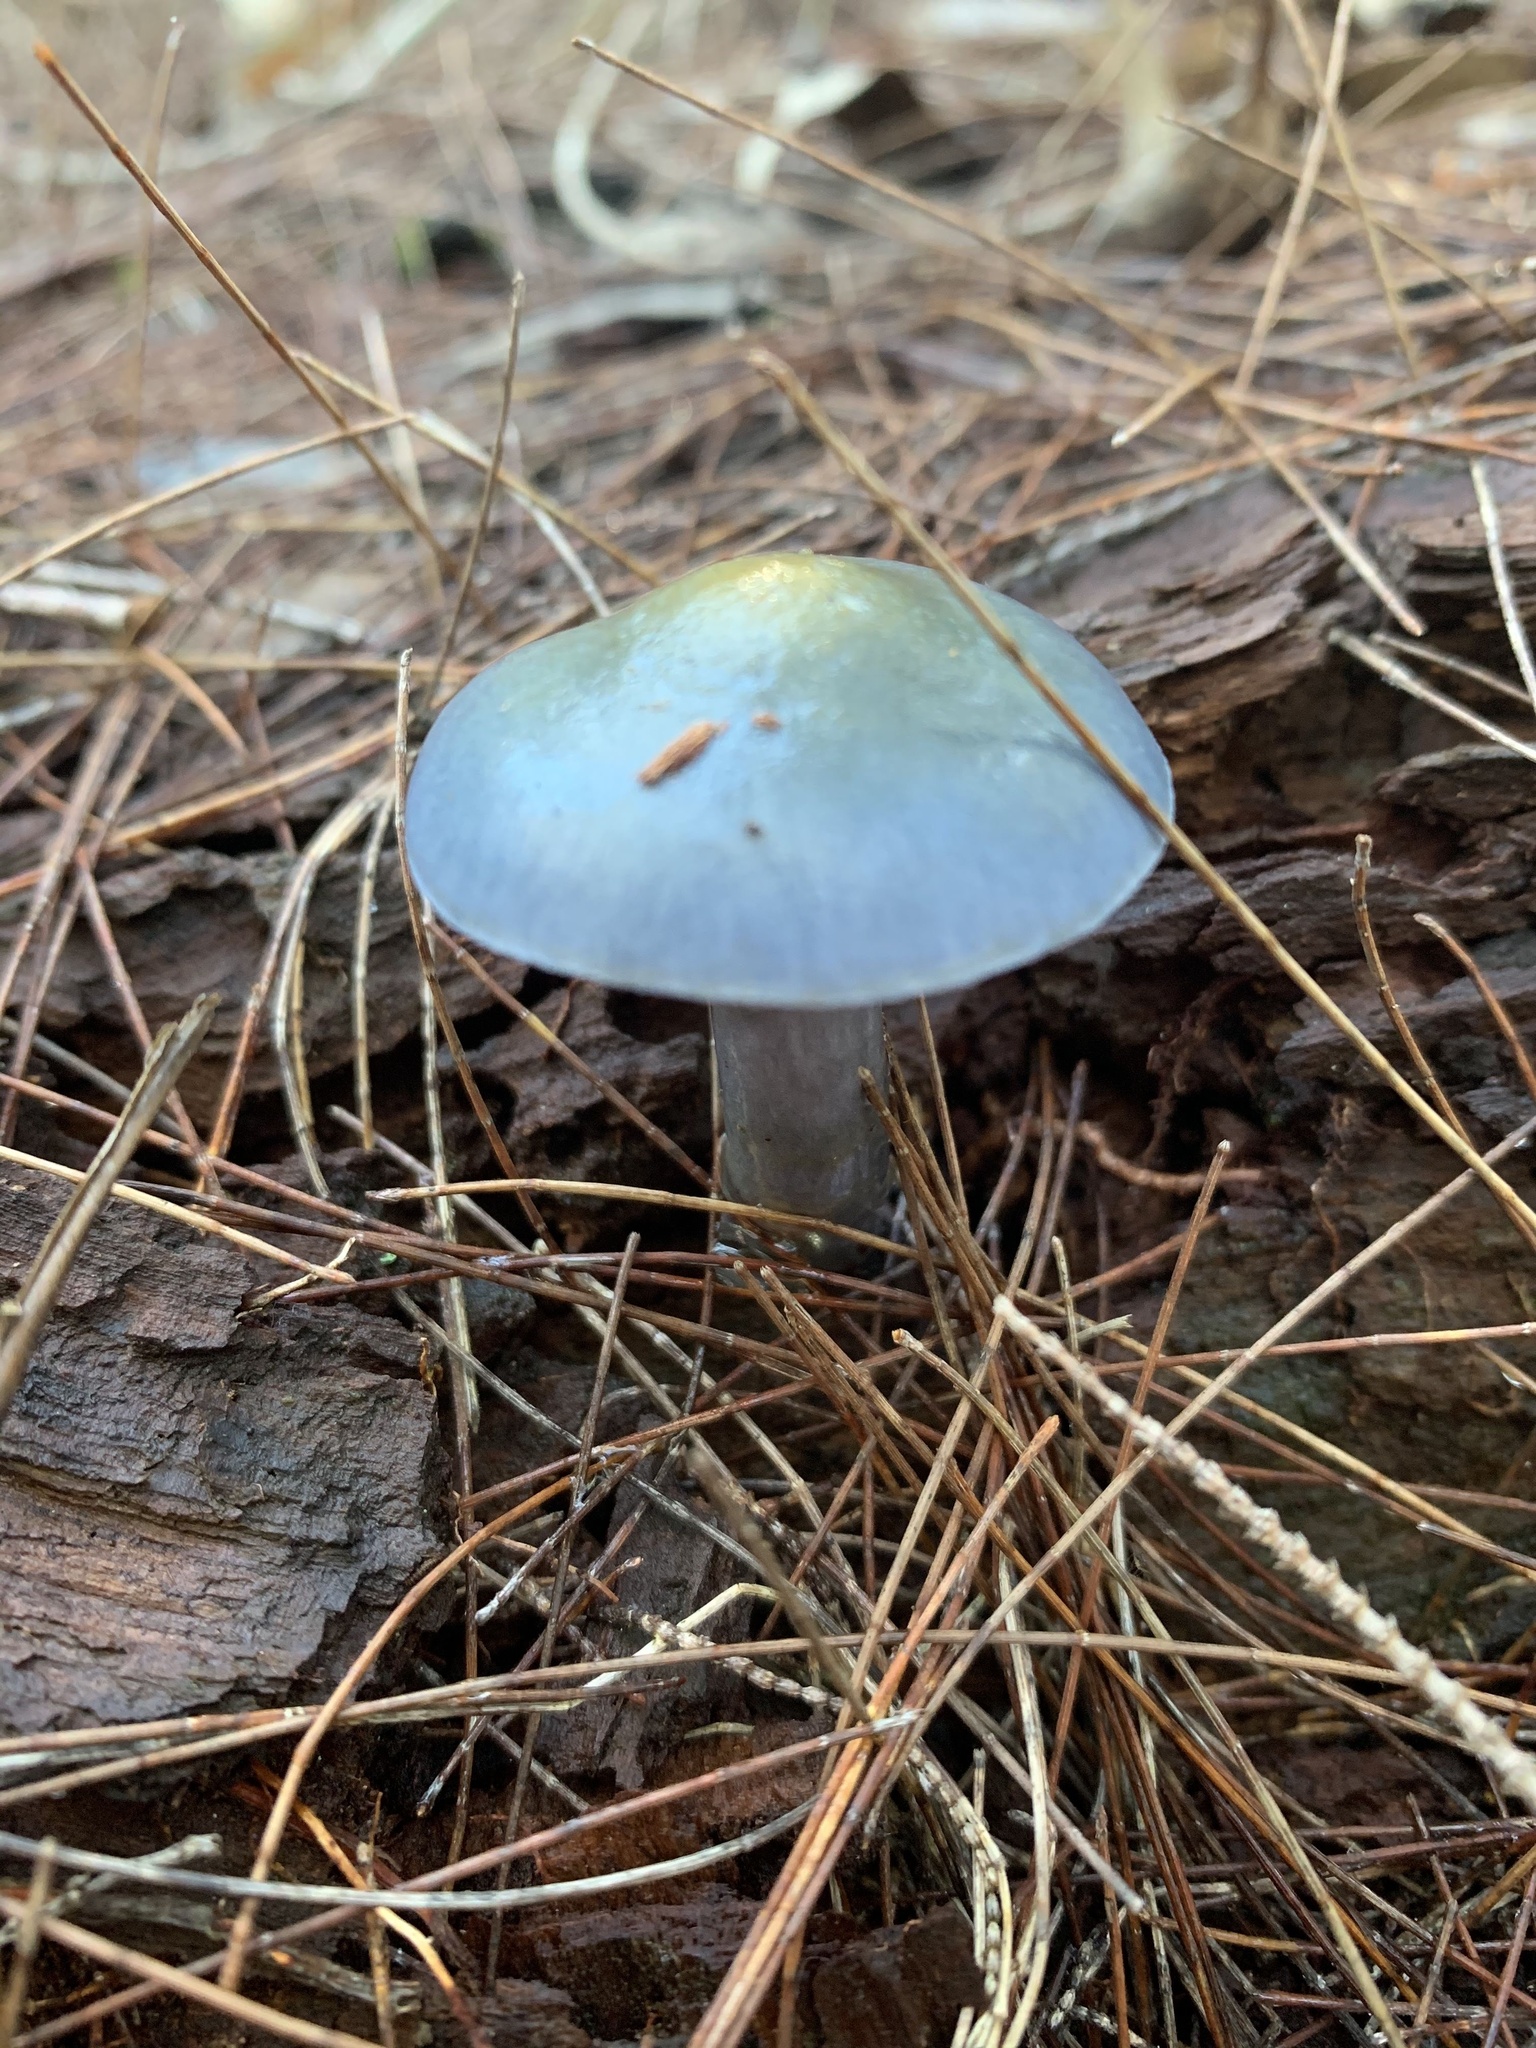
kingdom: Fungi
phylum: Basidiomycota
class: Agaricomycetes
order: Agaricales
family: Cortinariaceae
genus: Cortinarius
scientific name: Cortinarius rotundisporus
